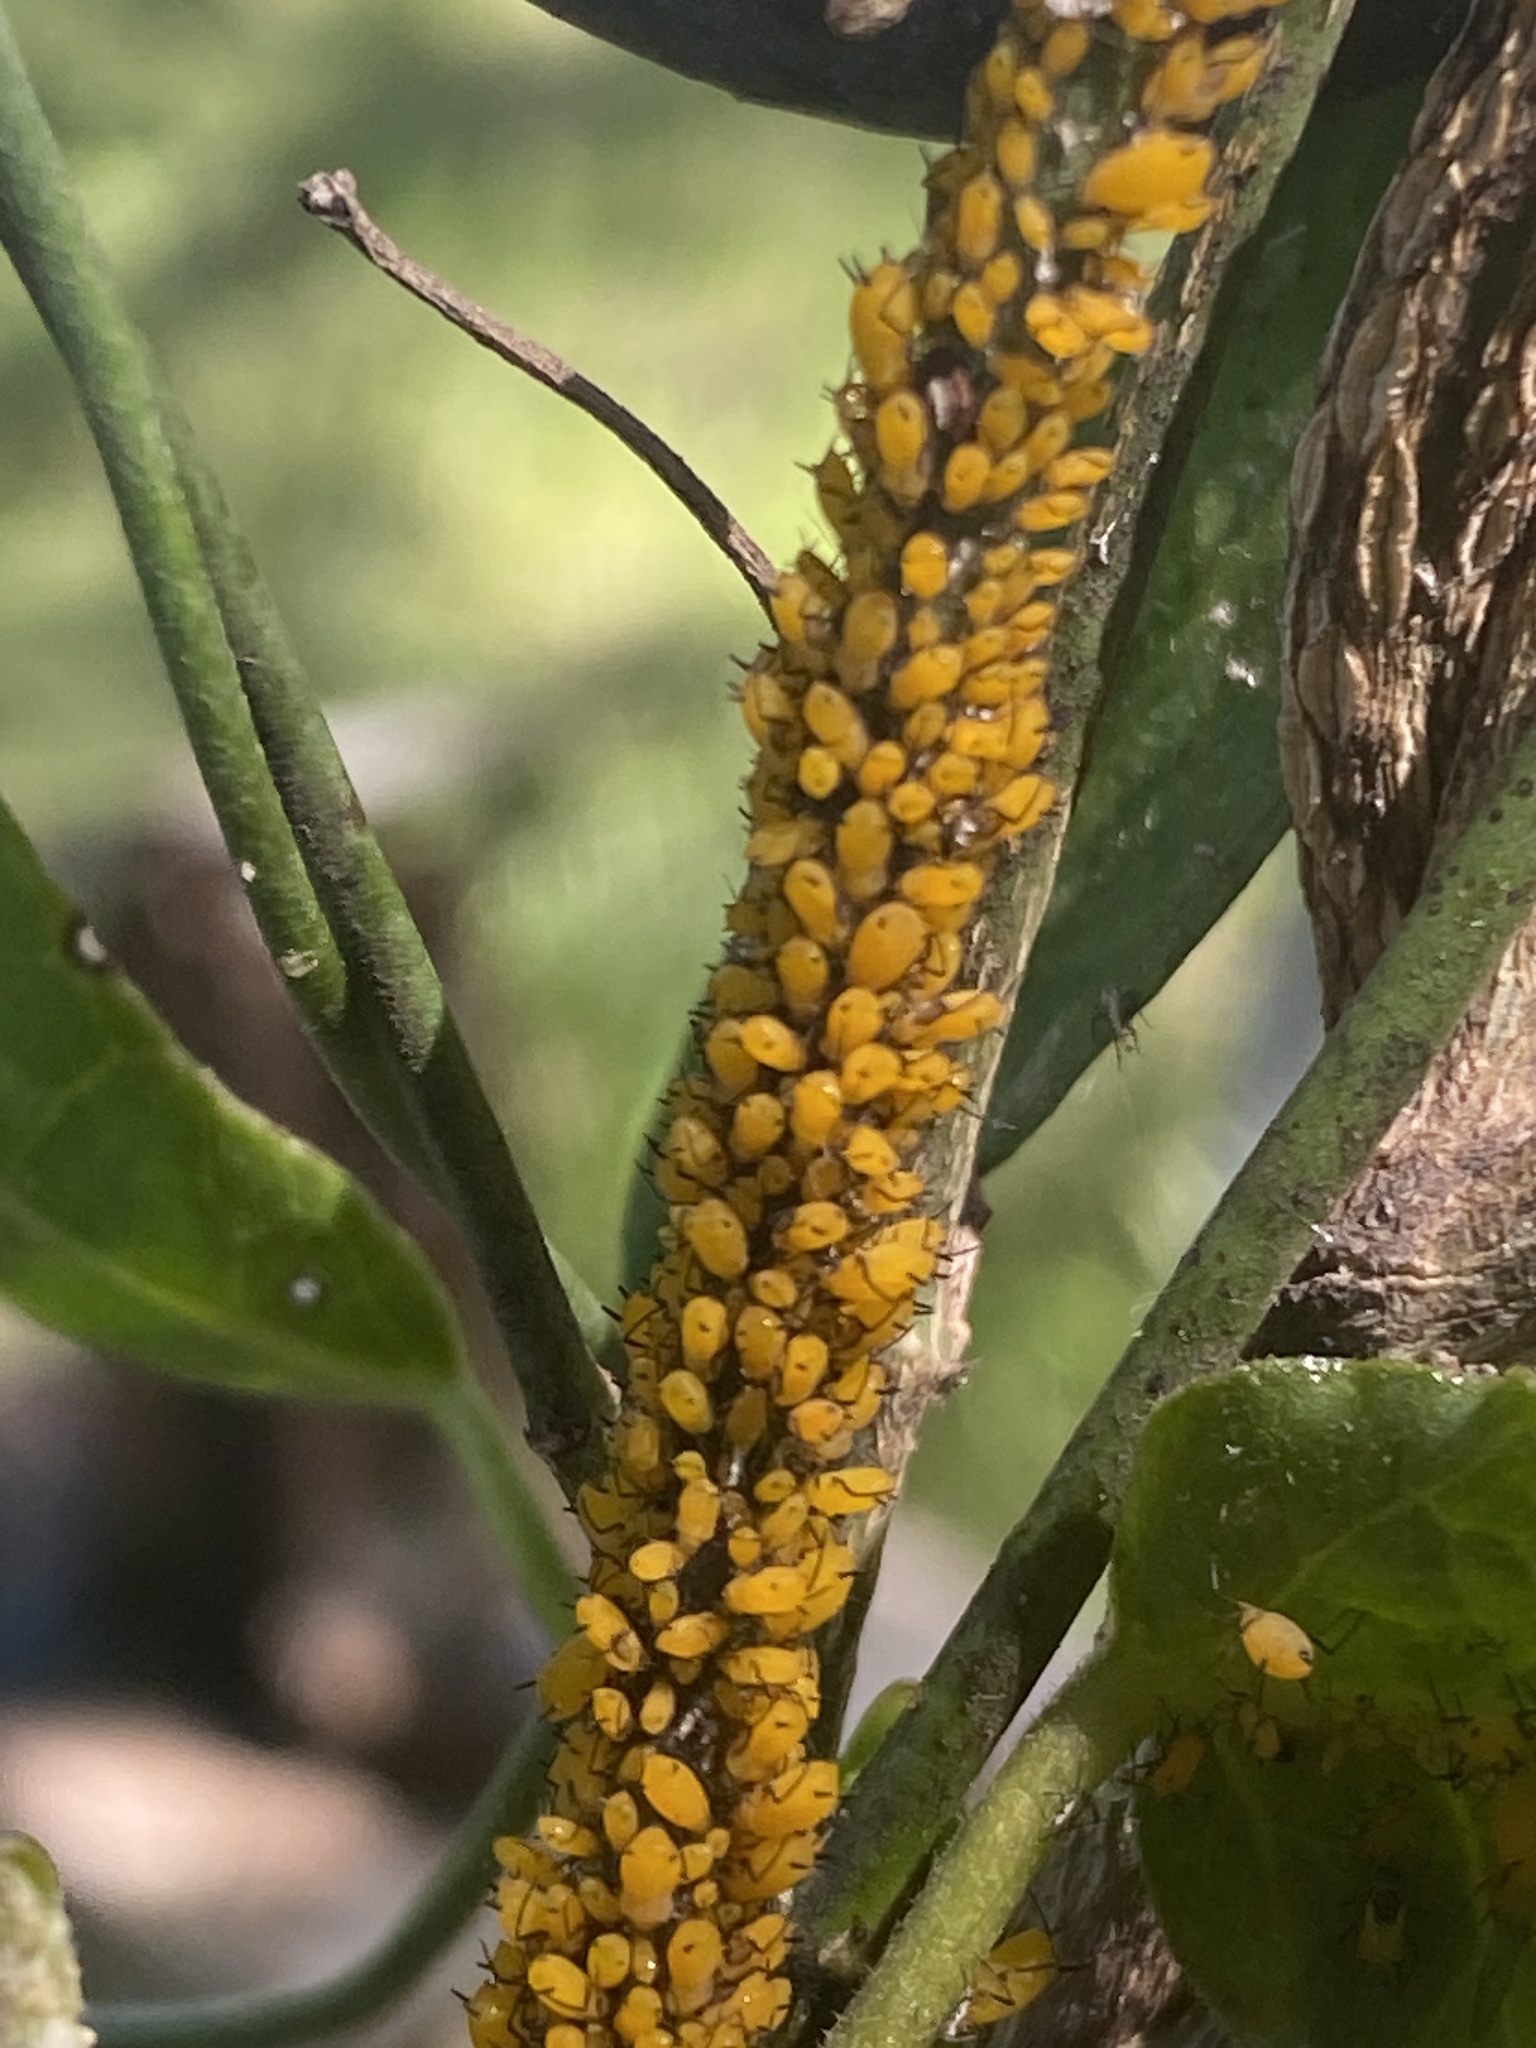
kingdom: Animalia
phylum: Arthropoda
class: Insecta
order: Hemiptera
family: Aphididae
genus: Aphis
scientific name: Aphis nerii
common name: Oleander aphid
